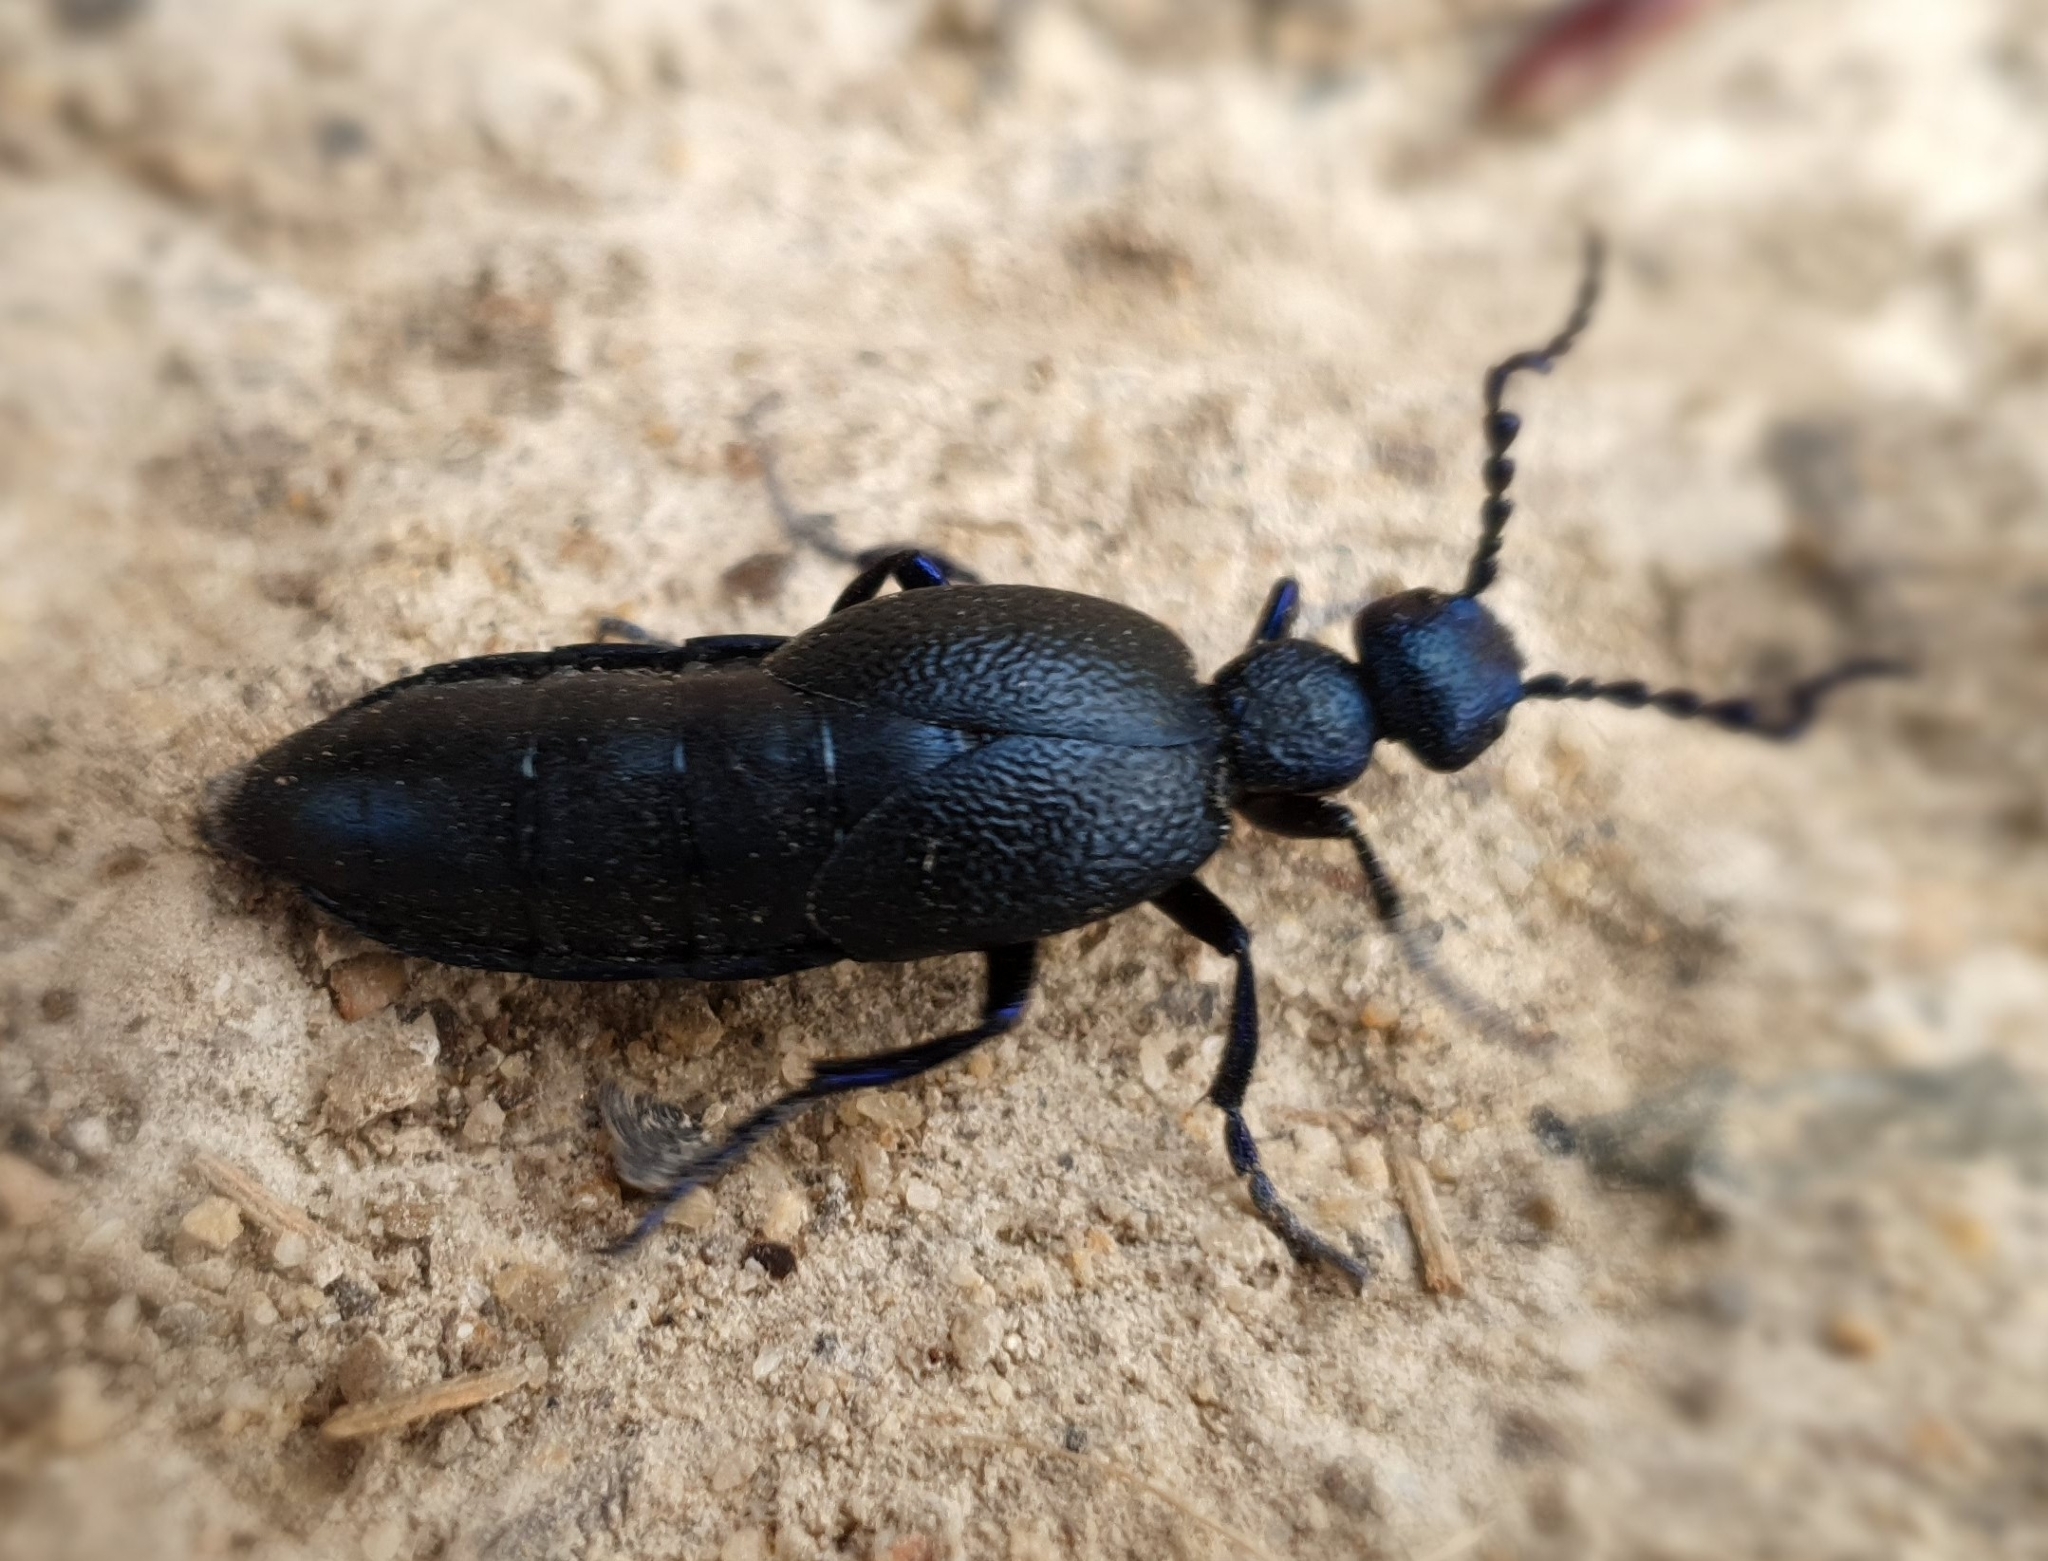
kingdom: Animalia
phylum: Arthropoda
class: Insecta
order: Coleoptera
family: Meloidae
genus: Meloe
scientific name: Meloe proscarabaeus
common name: Black oil-beetle
